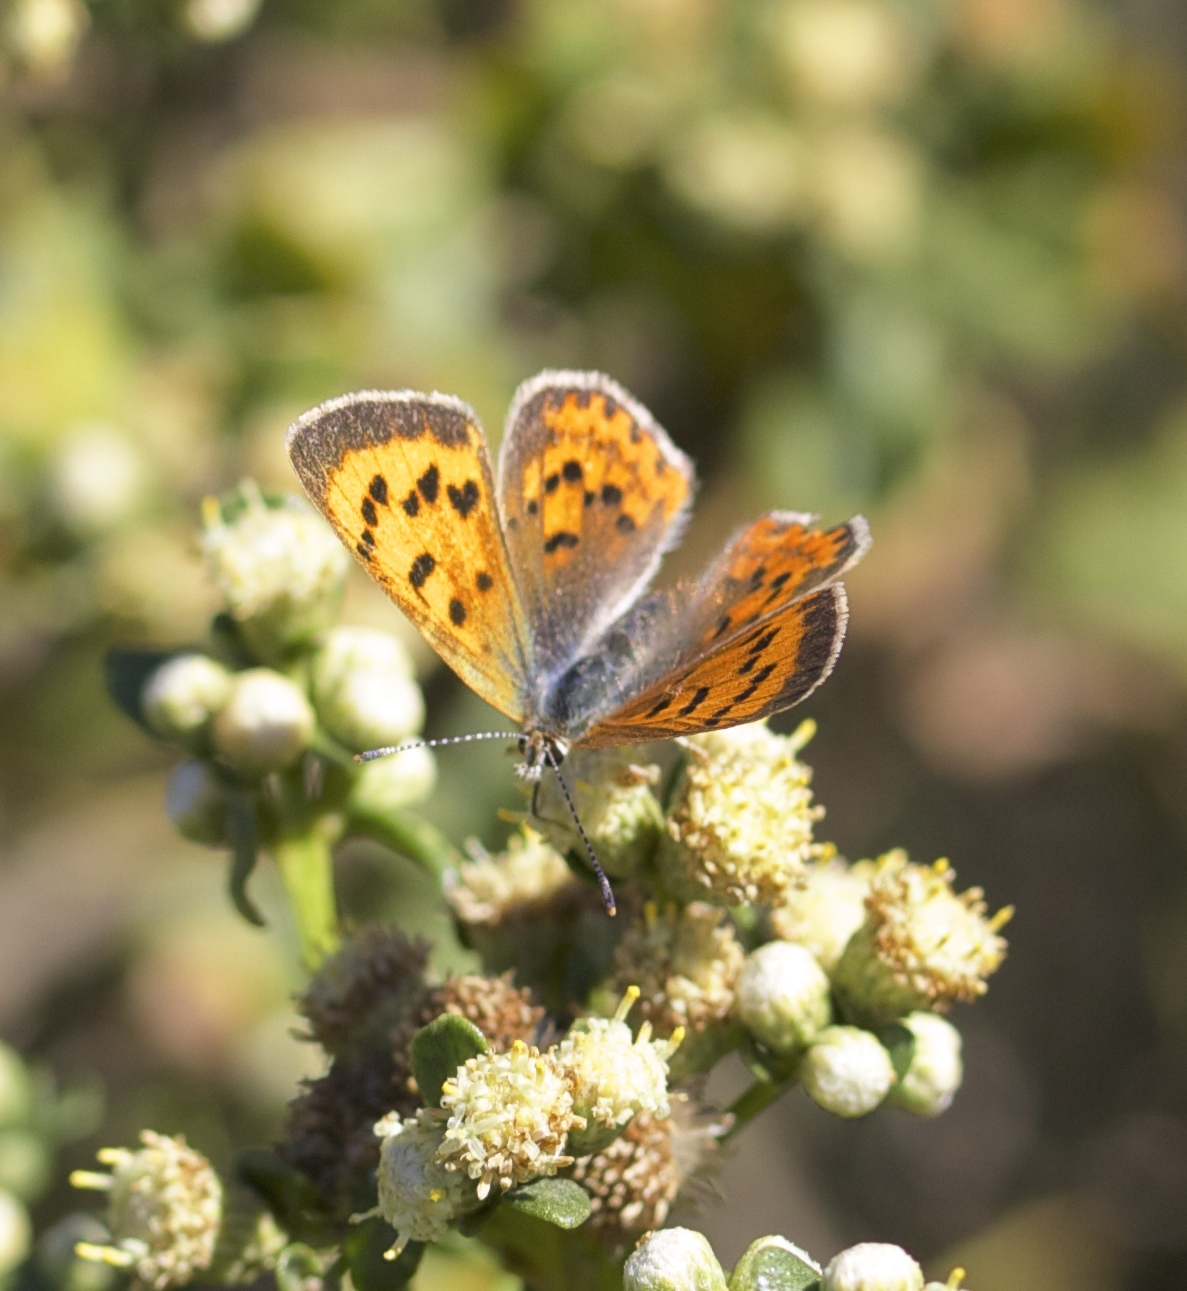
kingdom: Animalia
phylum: Arthropoda
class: Insecta
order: Lepidoptera
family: Lycaenidae
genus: Tharsalea
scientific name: Tharsalea helloides
